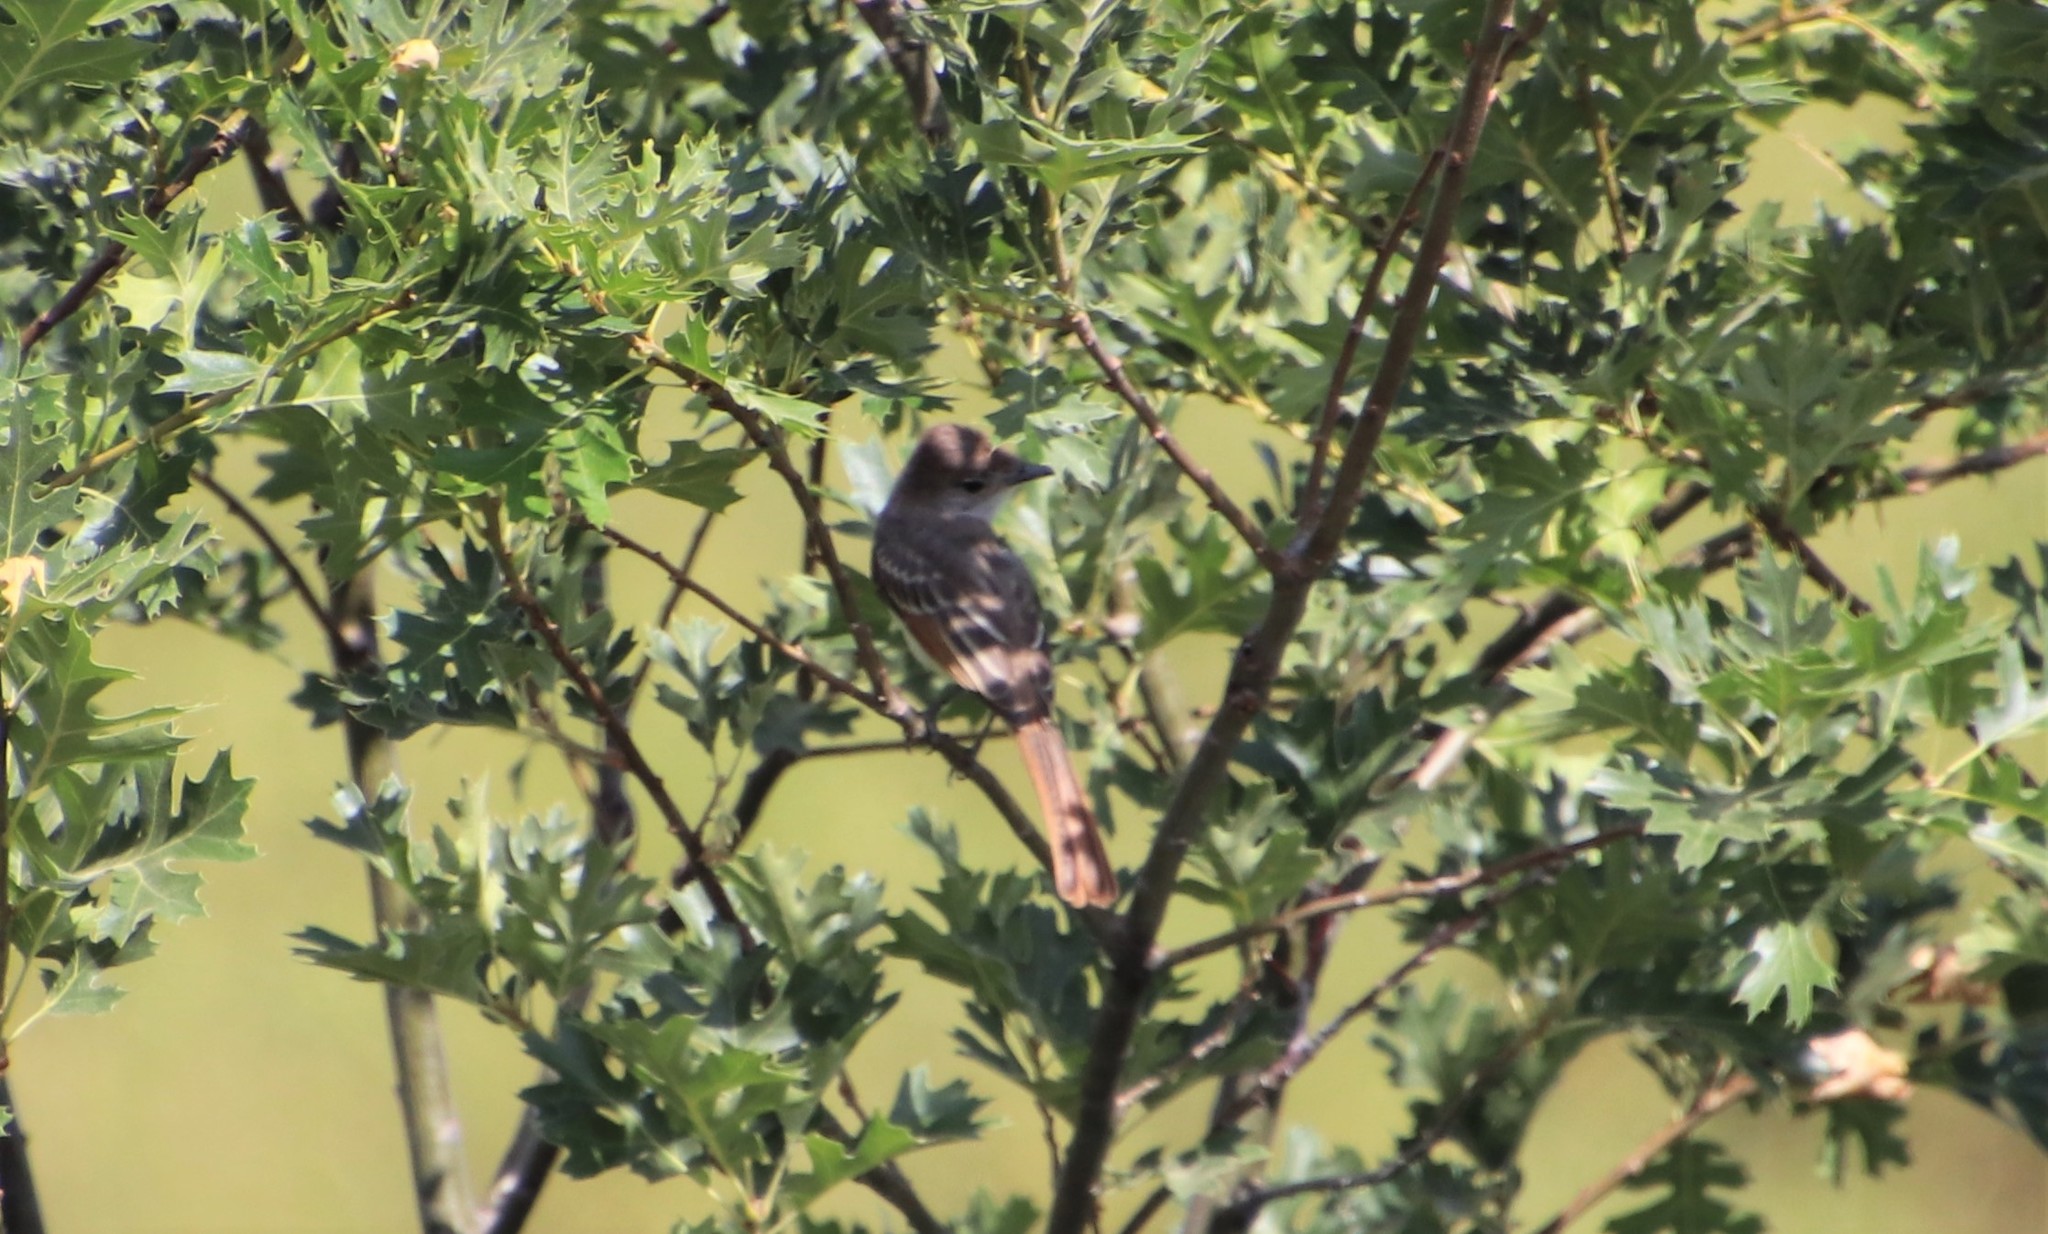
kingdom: Animalia
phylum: Chordata
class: Aves
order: Passeriformes
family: Tyrannidae
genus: Myiarchus
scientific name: Myiarchus cinerascens
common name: Ash-throated flycatcher
